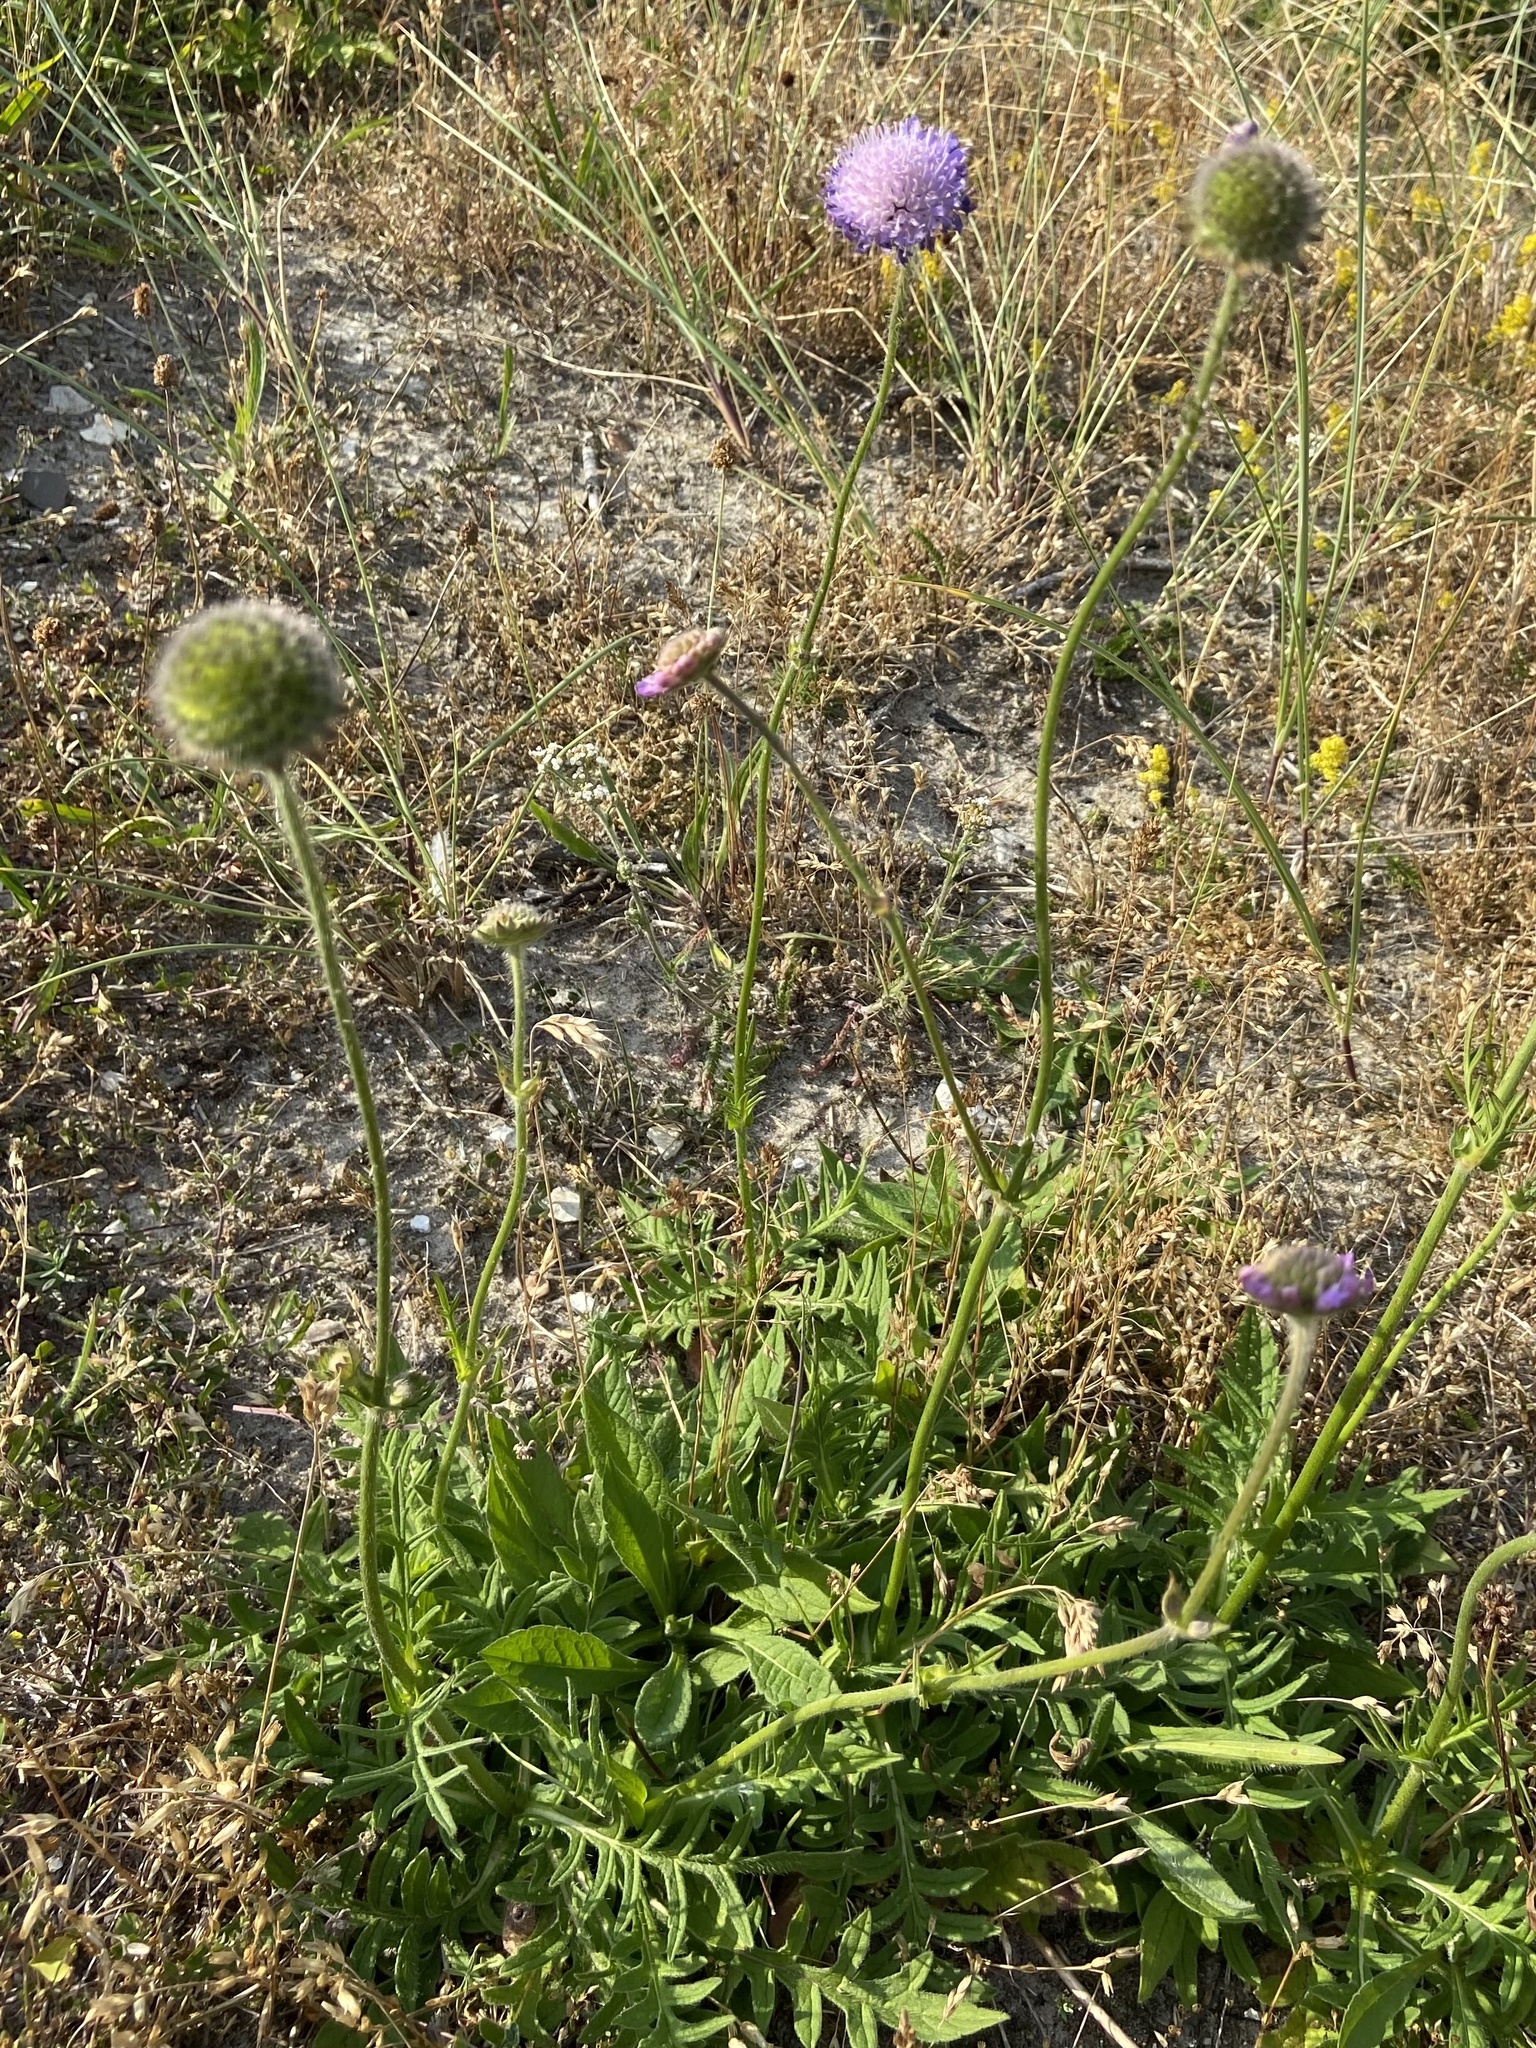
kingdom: Plantae
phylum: Tracheophyta
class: Magnoliopsida
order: Dipsacales
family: Caprifoliaceae
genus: Knautia
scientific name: Knautia arvensis
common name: Field scabiosa
